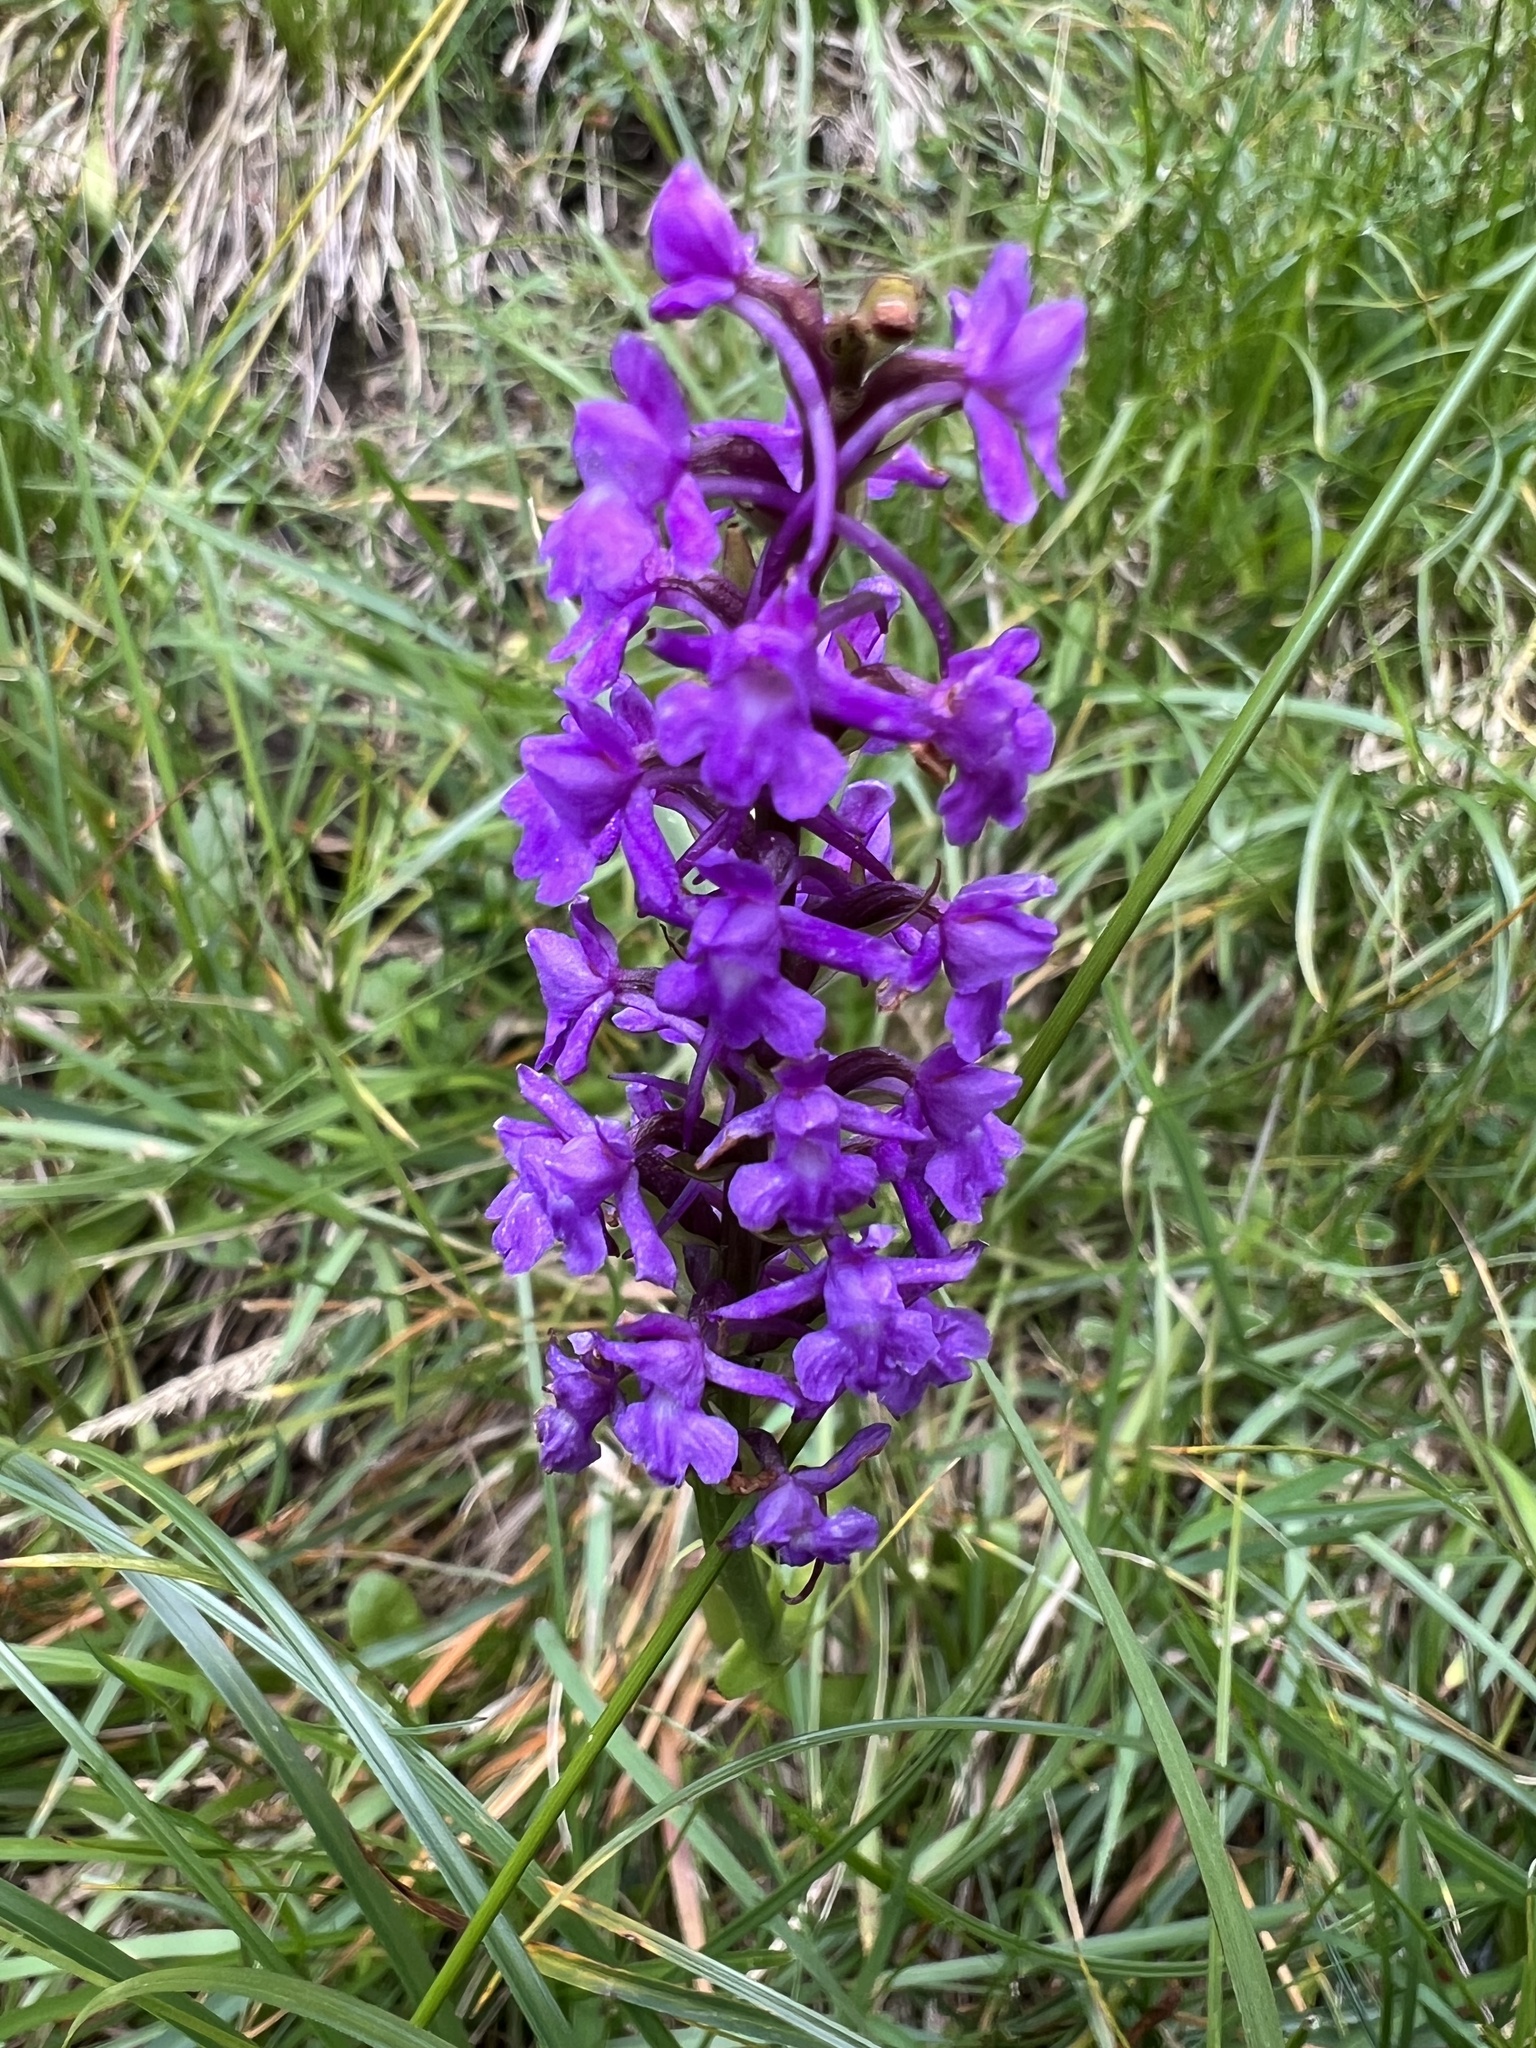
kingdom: Plantae
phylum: Tracheophyta
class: Liliopsida
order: Asparagales
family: Orchidaceae
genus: Gymnadenia
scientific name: Gymnadenia conopsea
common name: Fragrant orchid
